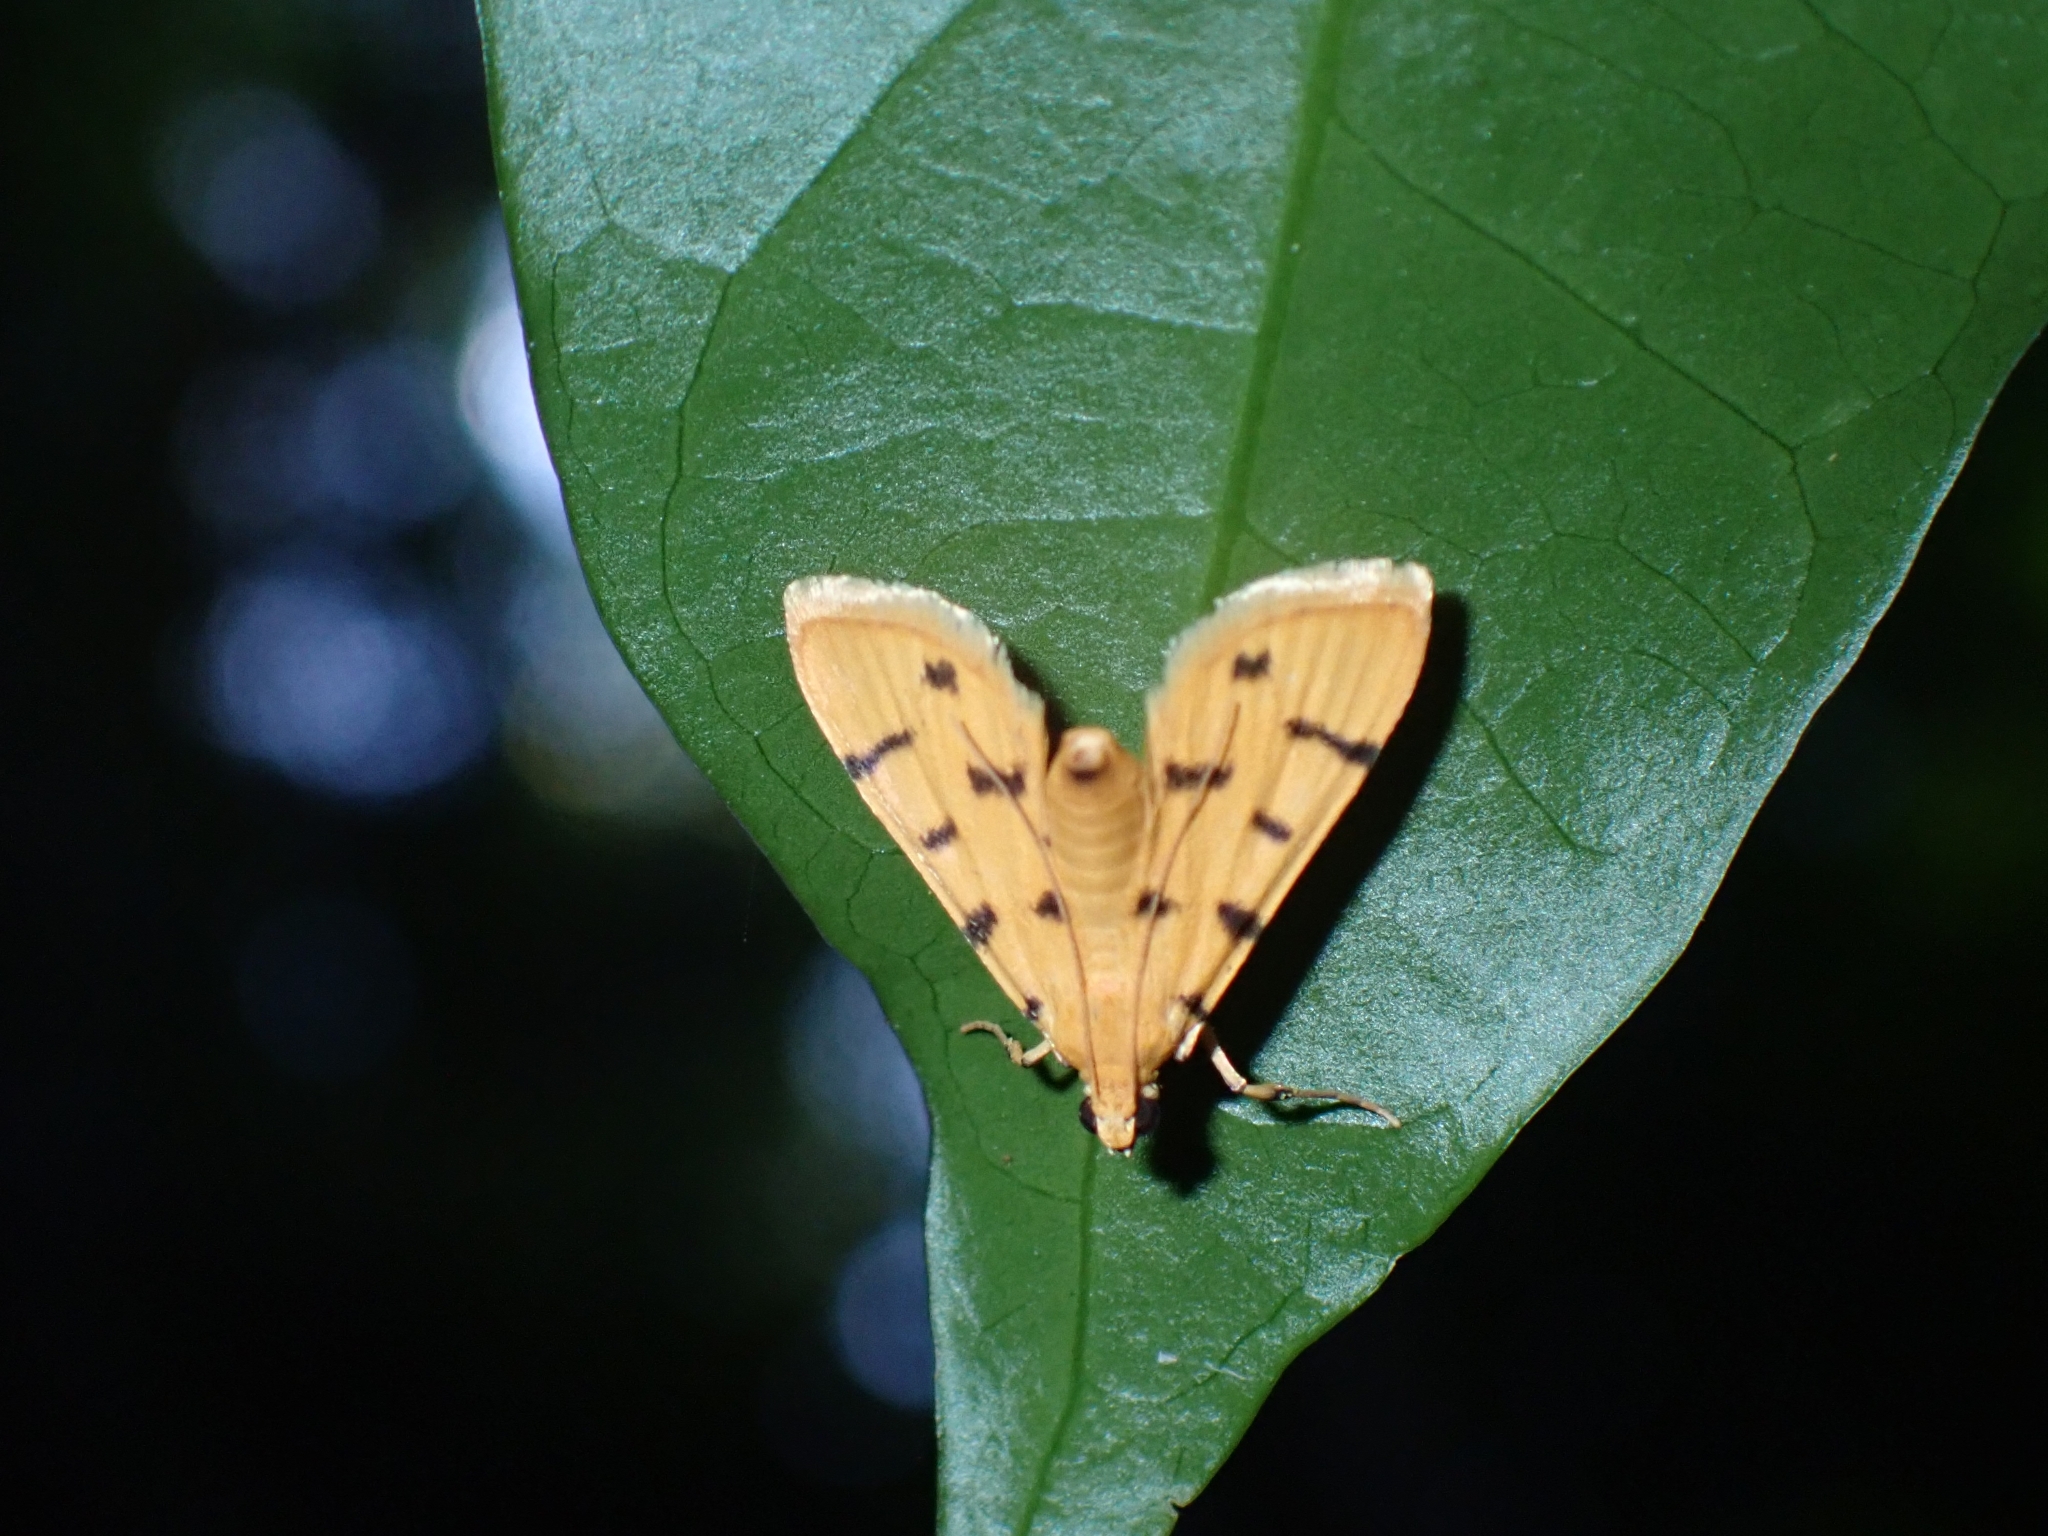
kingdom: Animalia
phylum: Arthropoda
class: Insecta
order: Lepidoptera
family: Crambidae
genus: Xanthomelaena
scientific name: Xanthomelaena schematias
